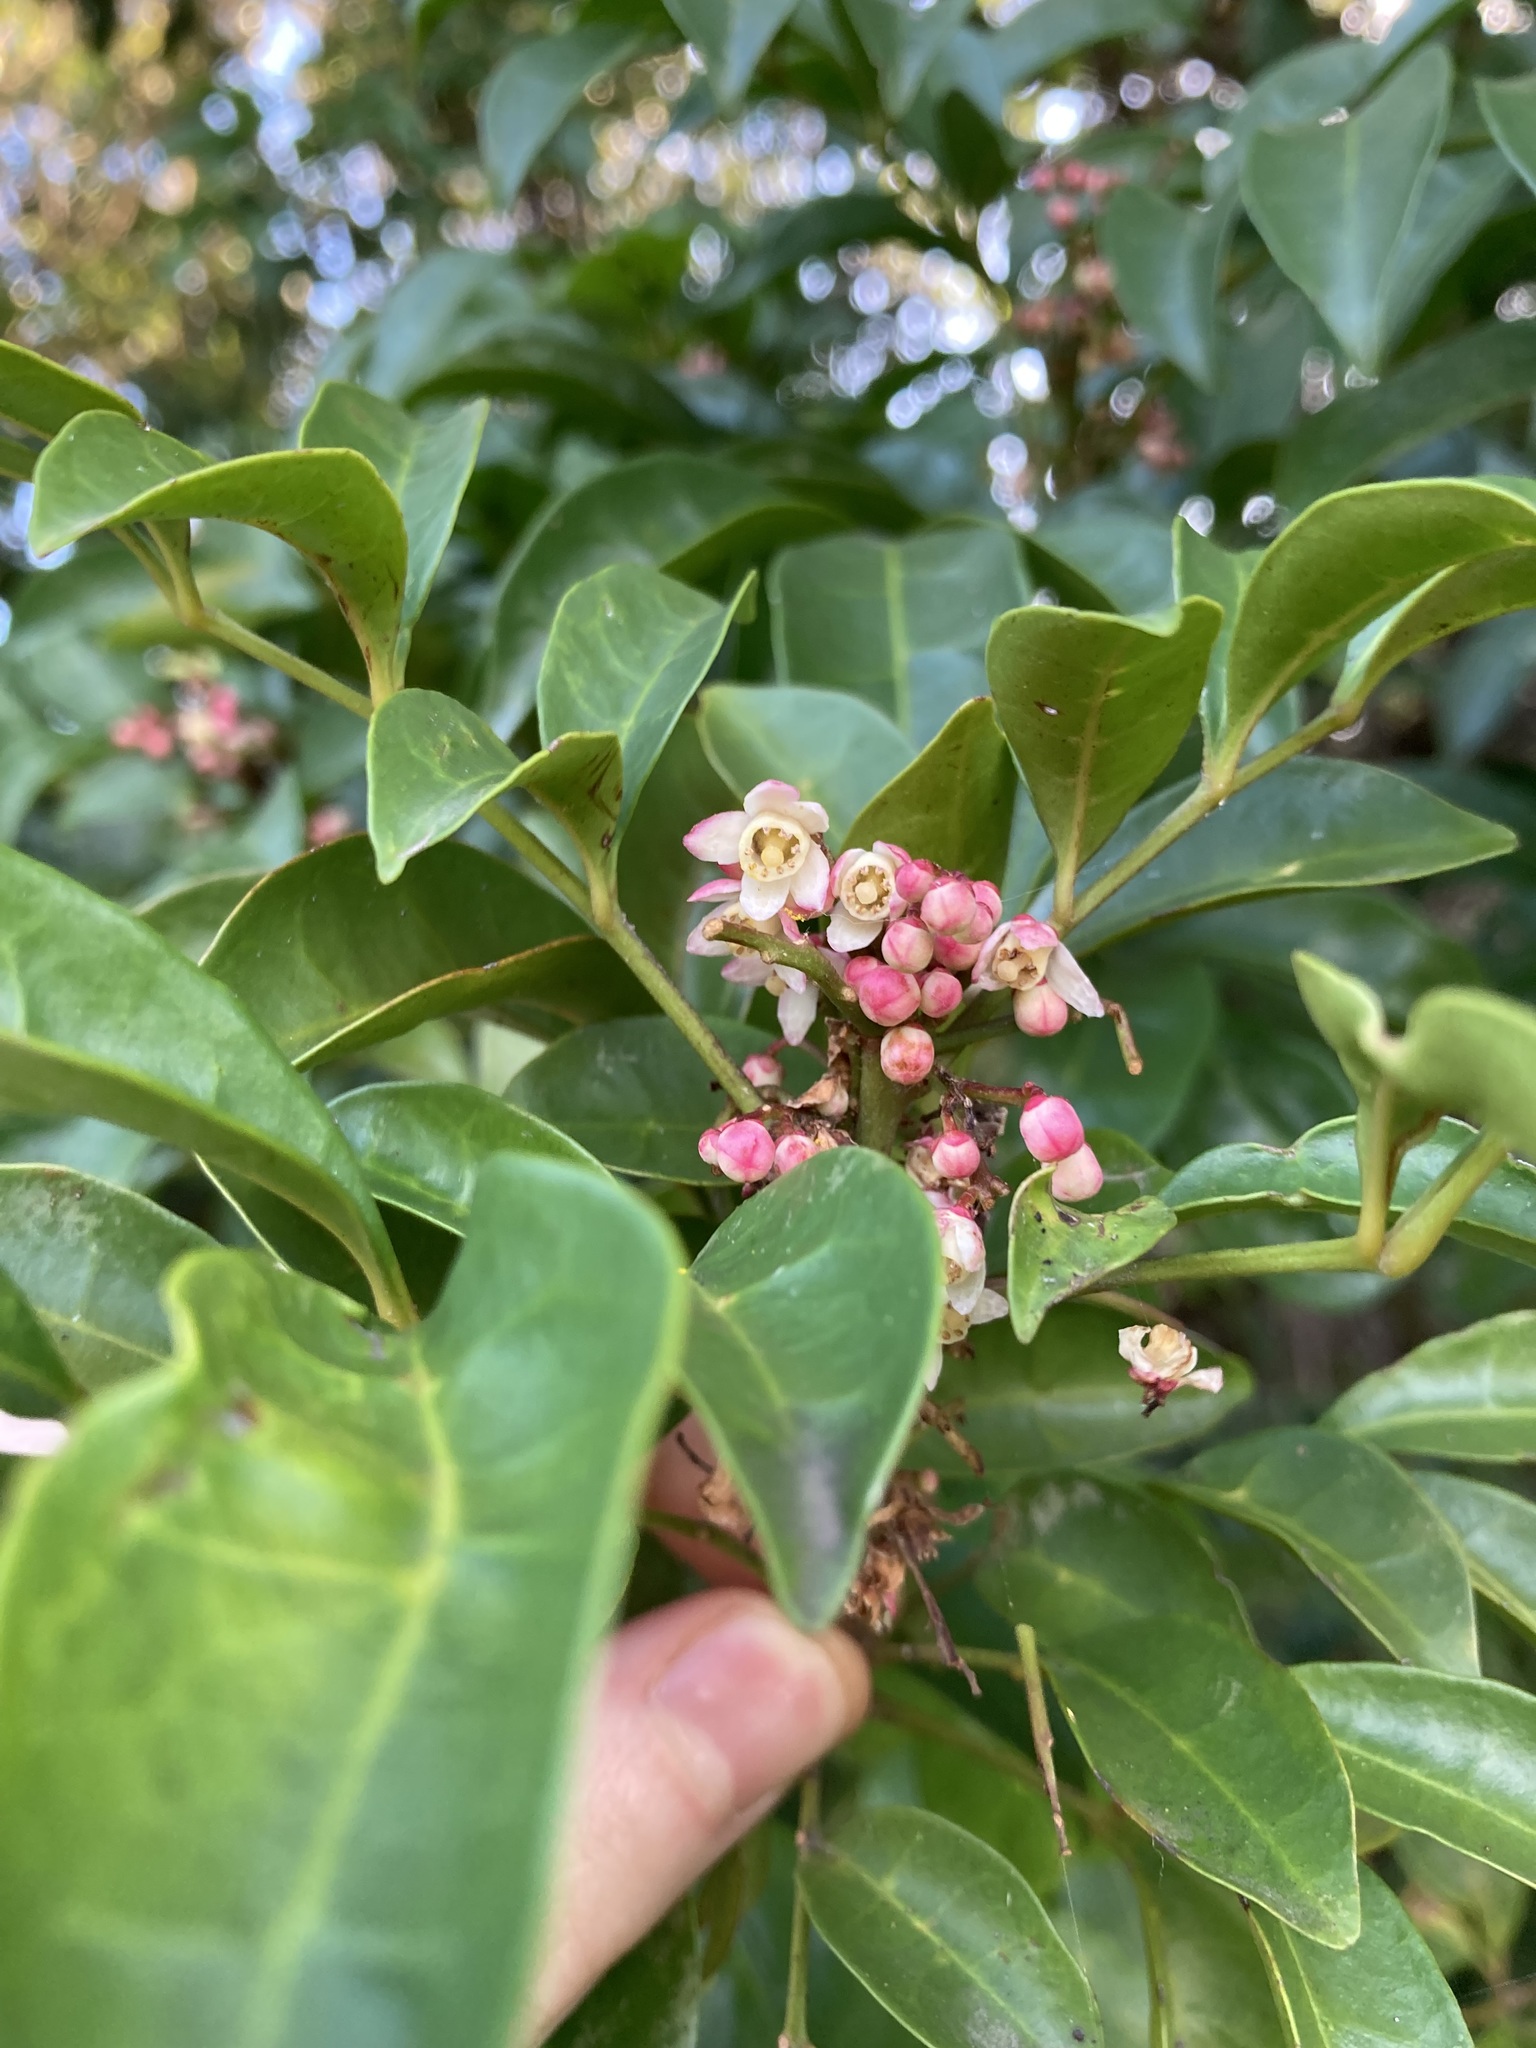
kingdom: Plantae
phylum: Tracheophyta
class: Magnoliopsida
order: Sapindales
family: Meliaceae
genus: Synoum
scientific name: Synoum glandulosum
